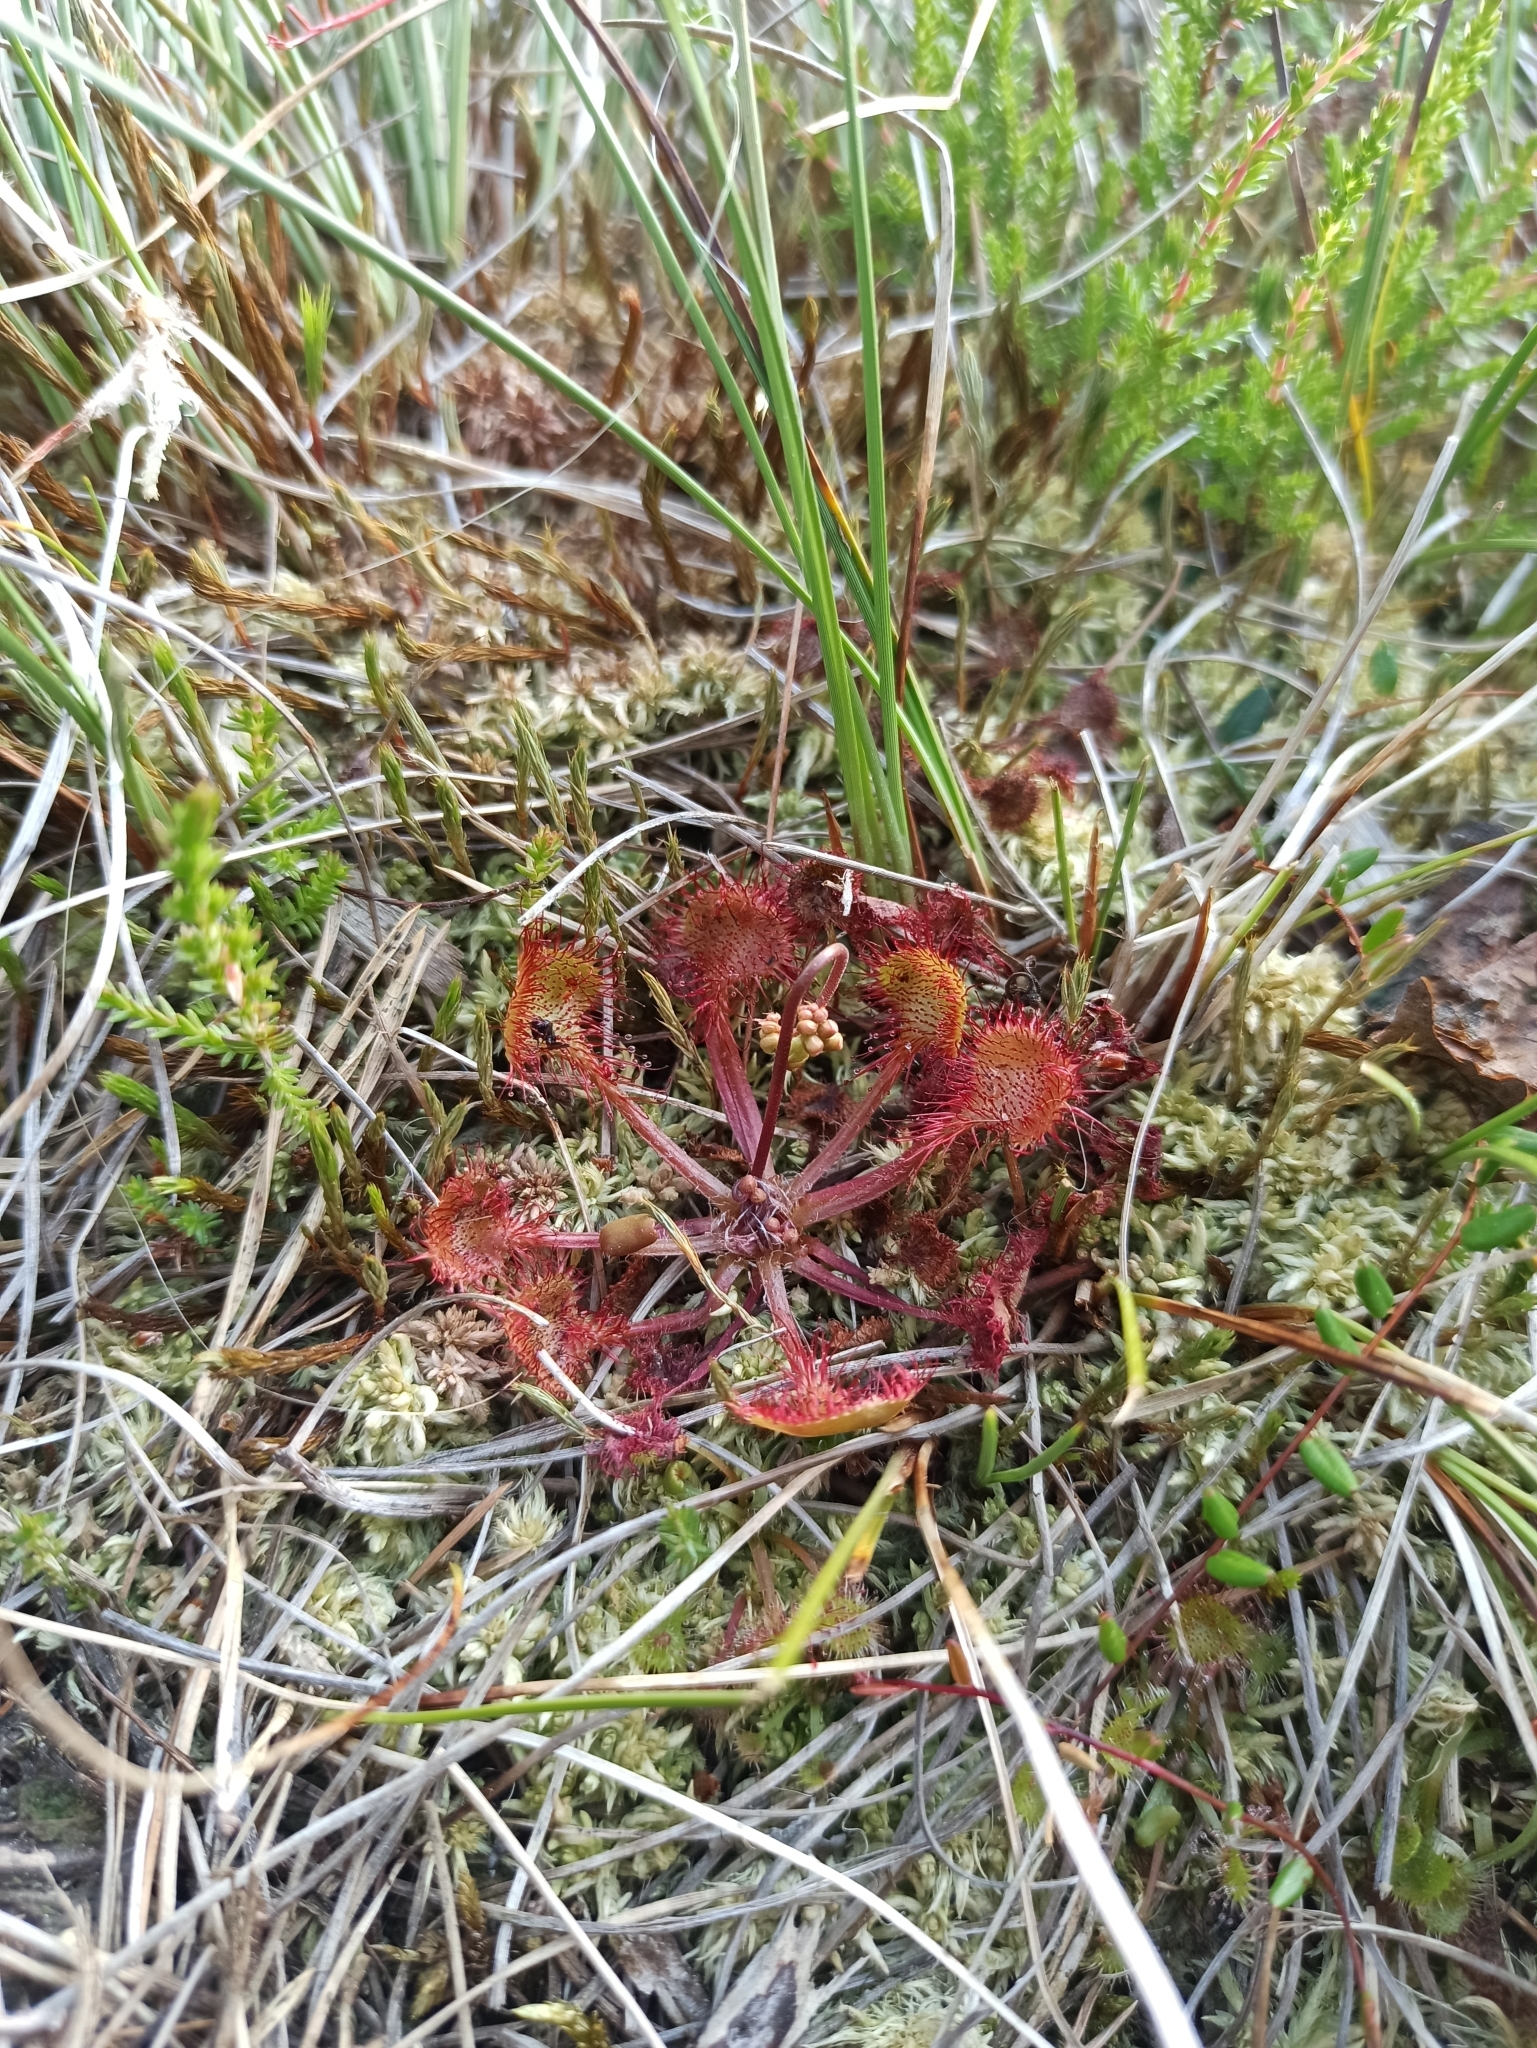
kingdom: Plantae
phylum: Tracheophyta
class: Magnoliopsida
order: Caryophyllales
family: Droseraceae
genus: Drosera
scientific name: Drosera rotundifolia
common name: Round-leaved sundew
